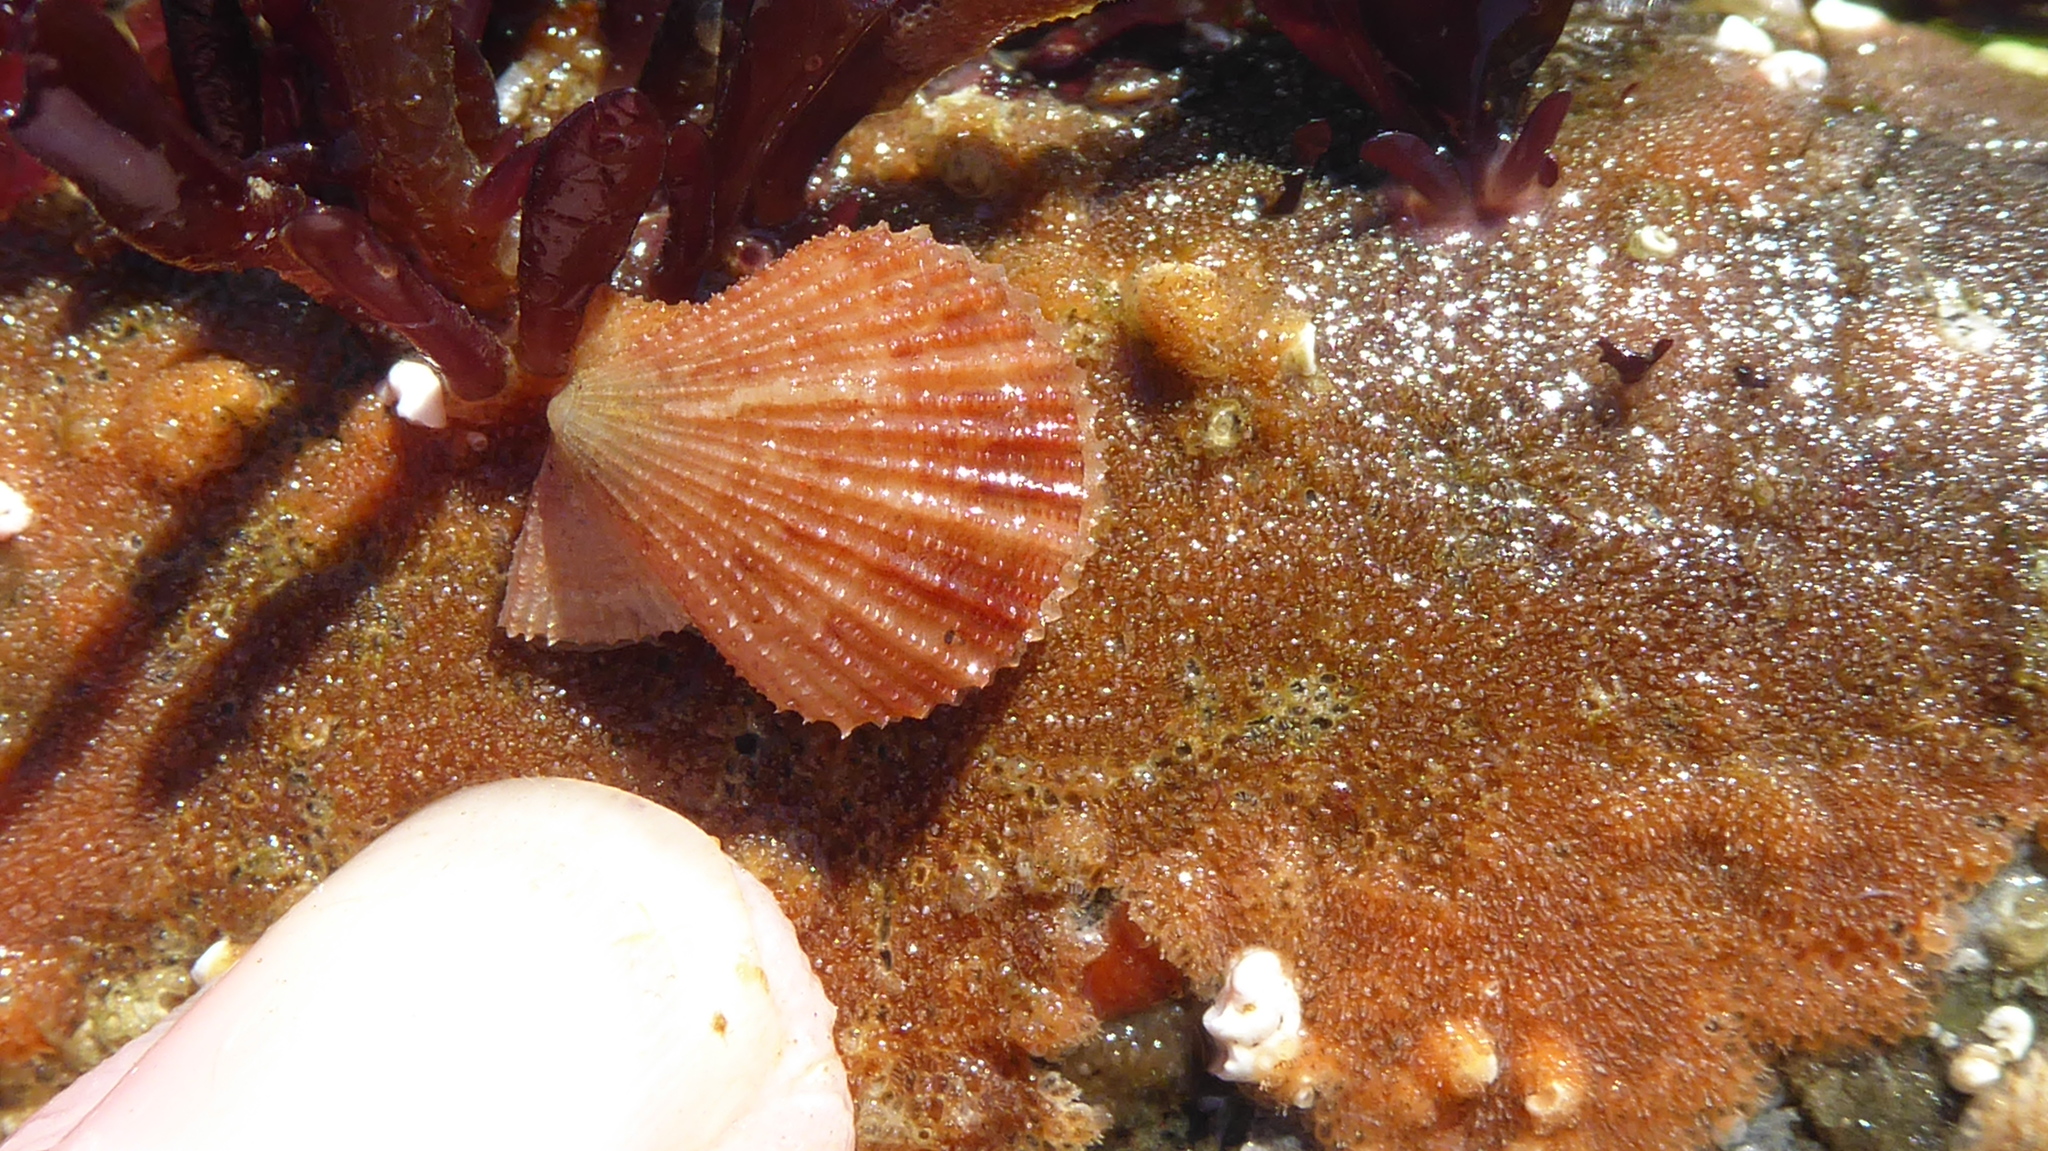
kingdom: Animalia
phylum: Mollusca
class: Bivalvia
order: Pectinida
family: Pectinidae
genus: Chlamys
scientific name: Chlamys hastata
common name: Spear scallop
